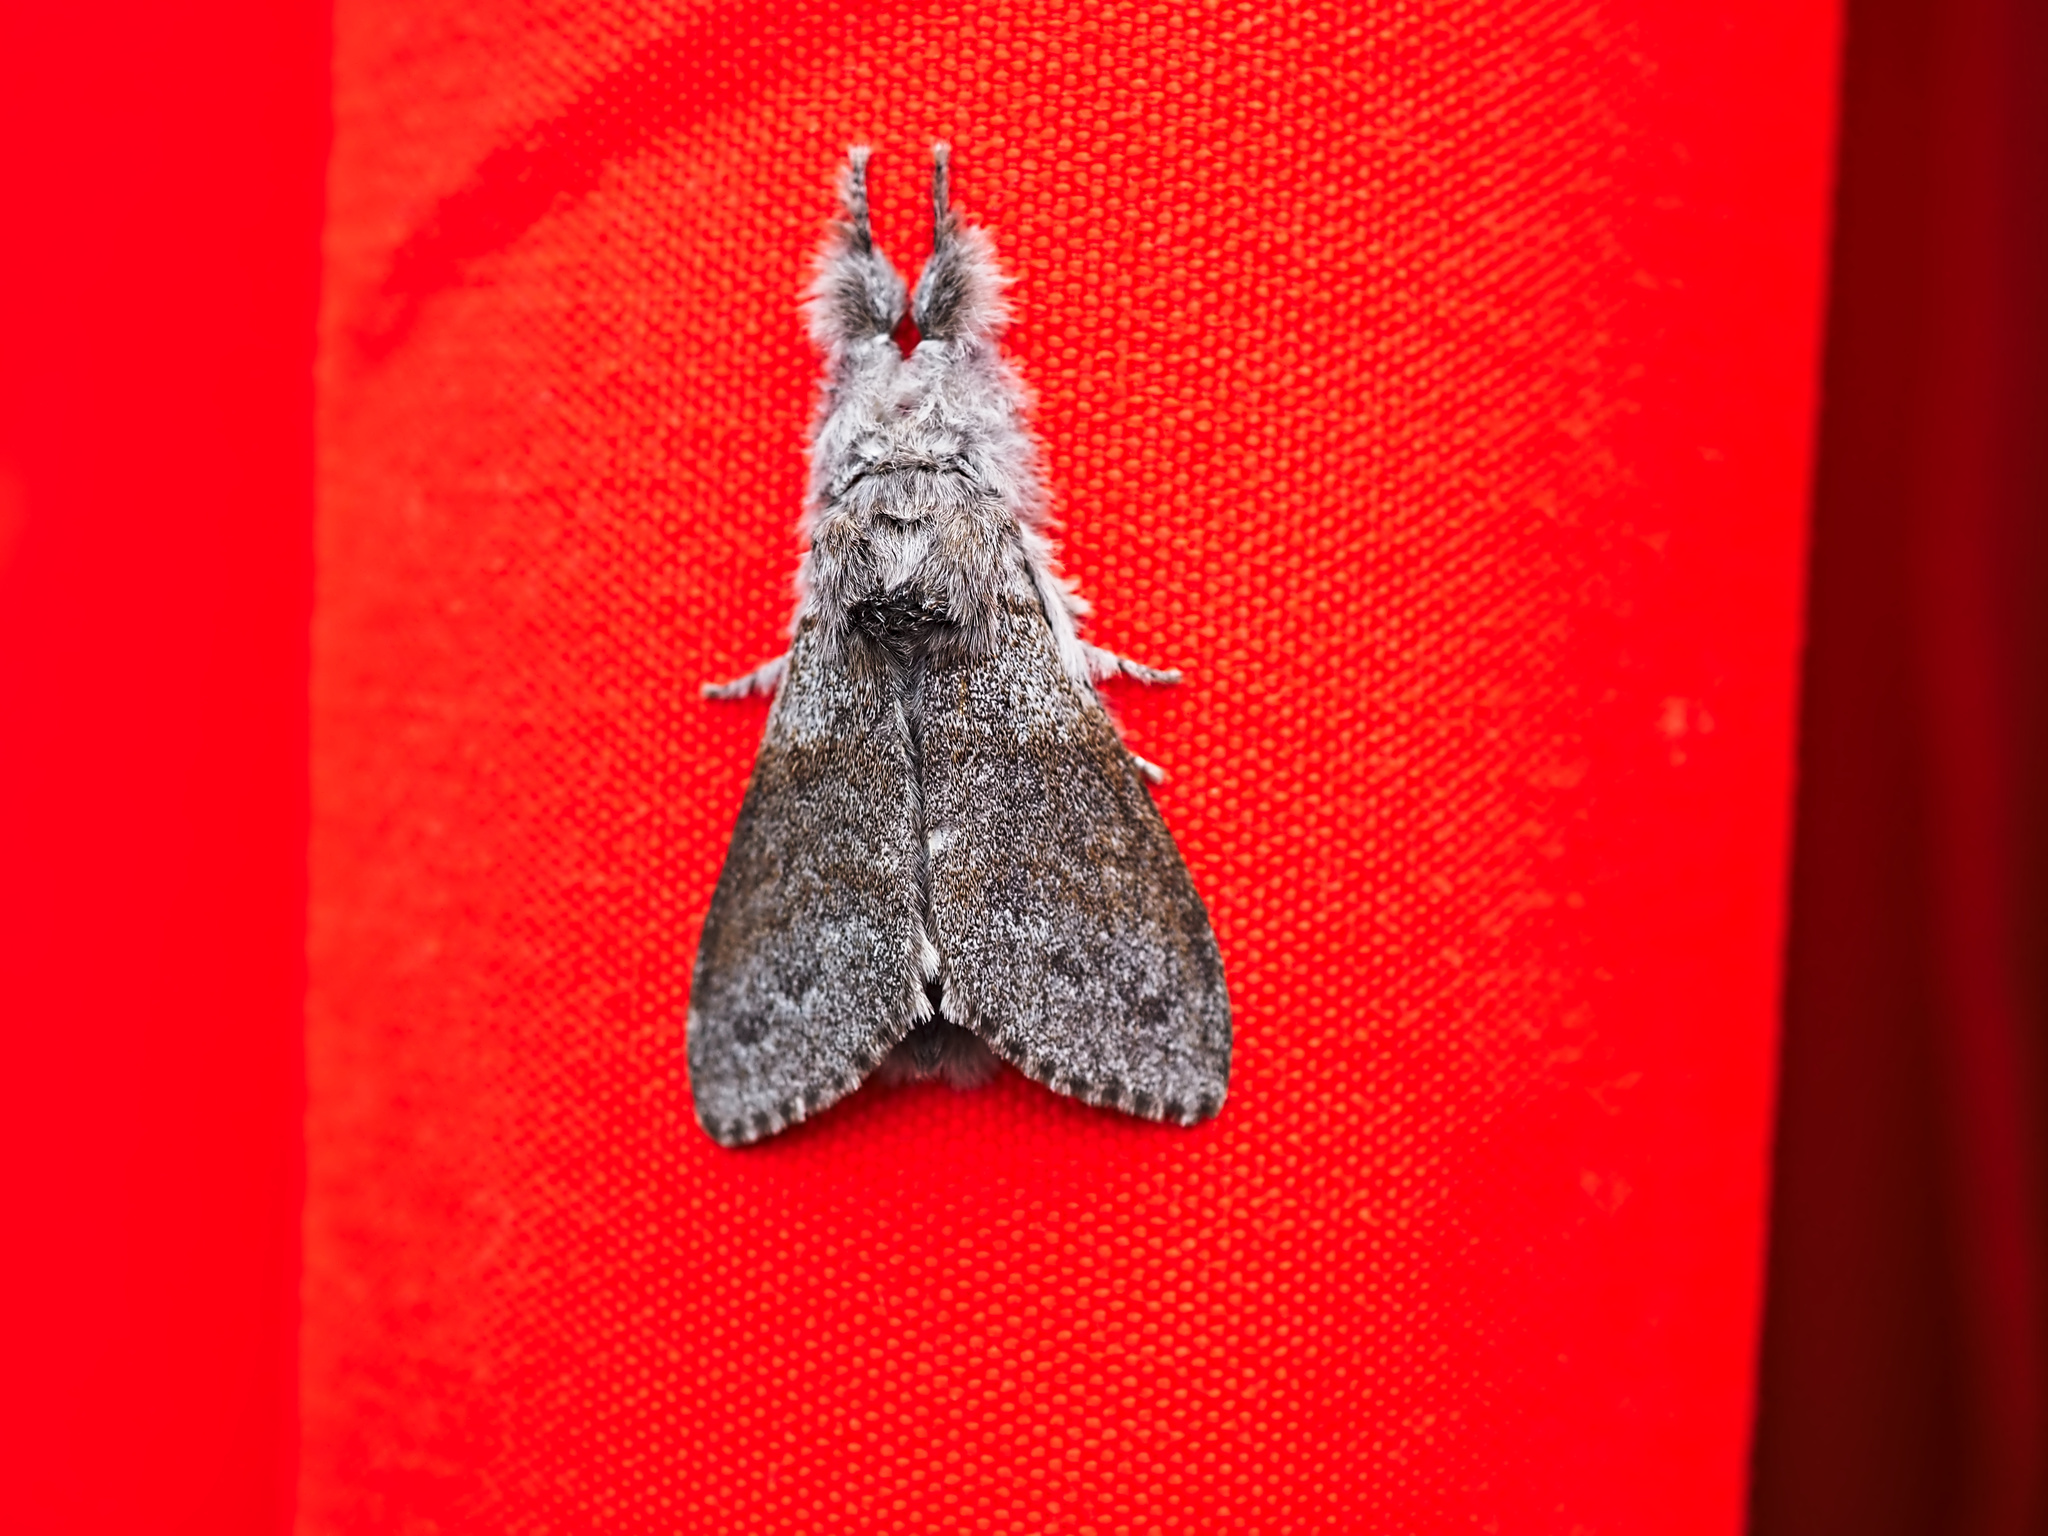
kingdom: Animalia
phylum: Arthropoda
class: Insecta
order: Lepidoptera
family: Erebidae
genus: Calliteara
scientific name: Calliteara pudibunda
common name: Pale tussock
